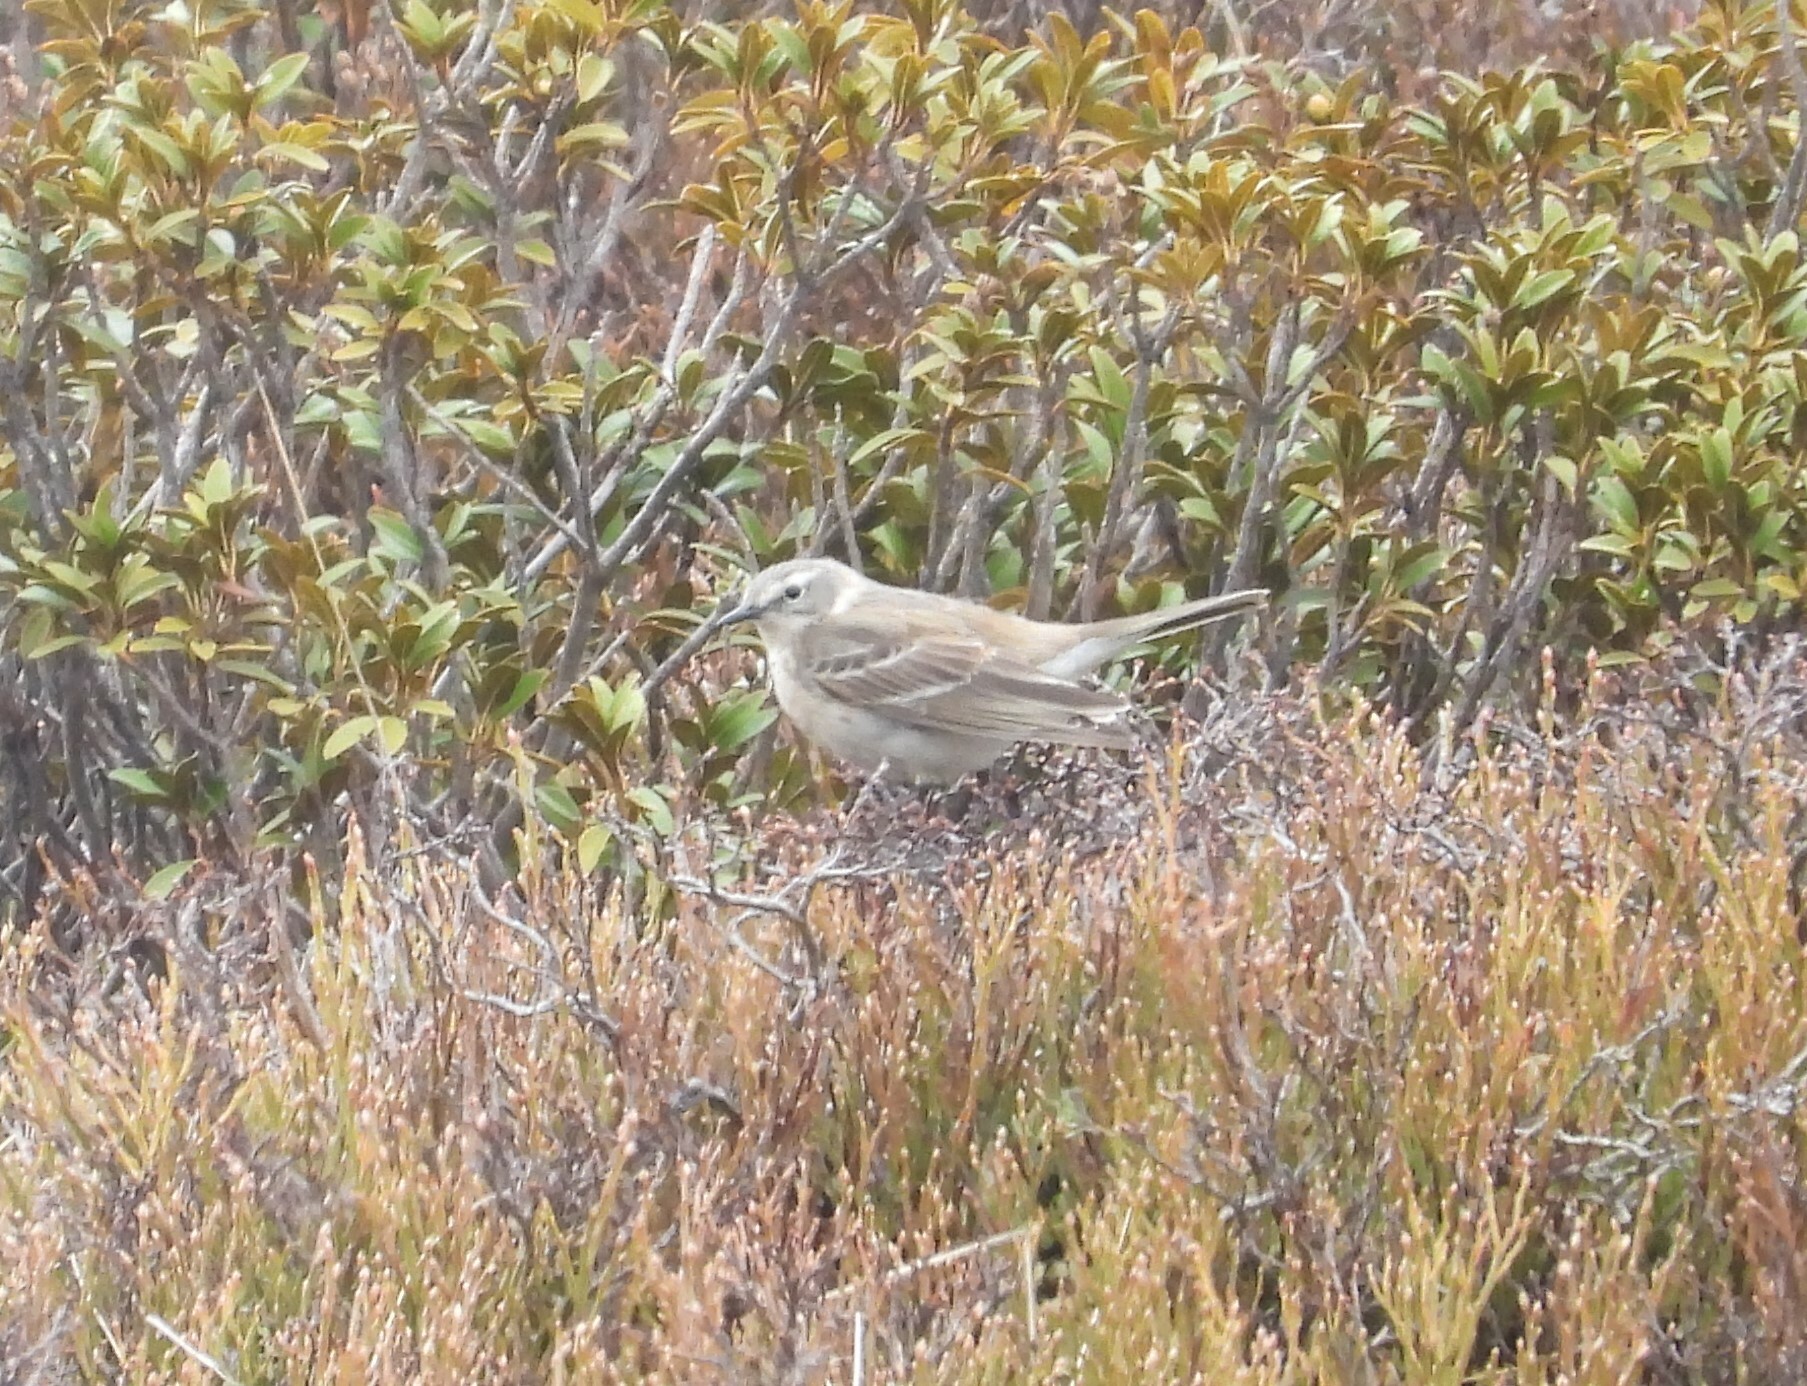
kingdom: Animalia
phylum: Chordata
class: Aves
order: Passeriformes
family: Motacillidae
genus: Anthus
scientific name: Anthus spinoletta
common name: Water pipit
